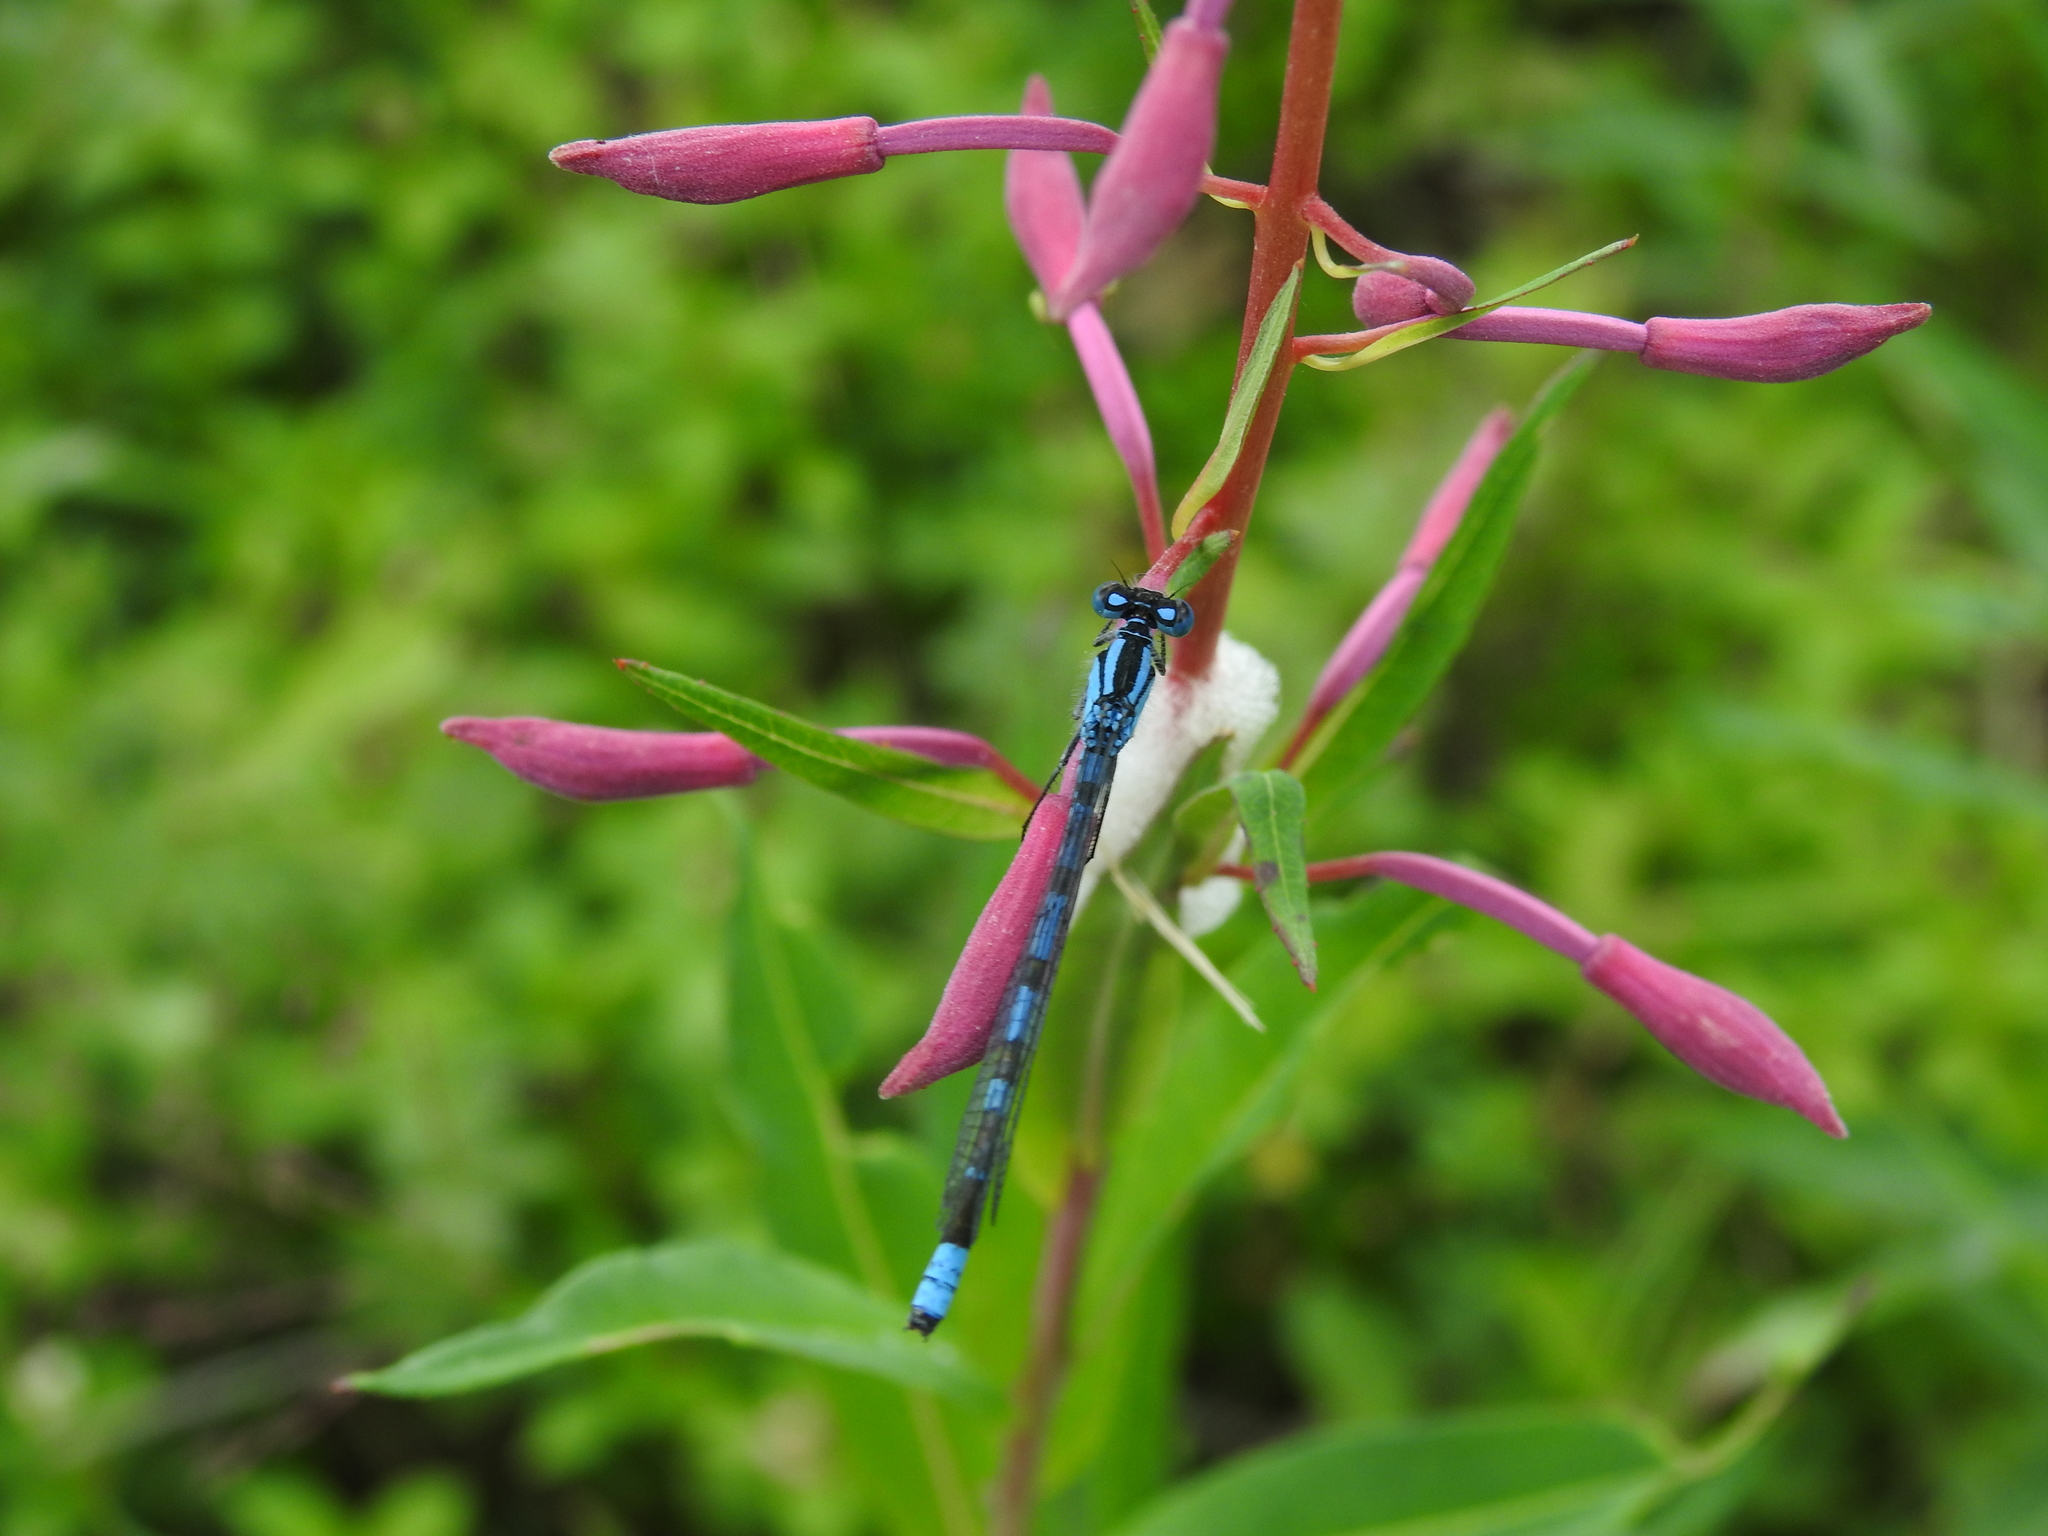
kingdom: Animalia
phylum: Arthropoda
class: Insecta
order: Odonata
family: Coenagrionidae
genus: Enallagma
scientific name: Enallagma cyathigerum
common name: Common blue damselfly
